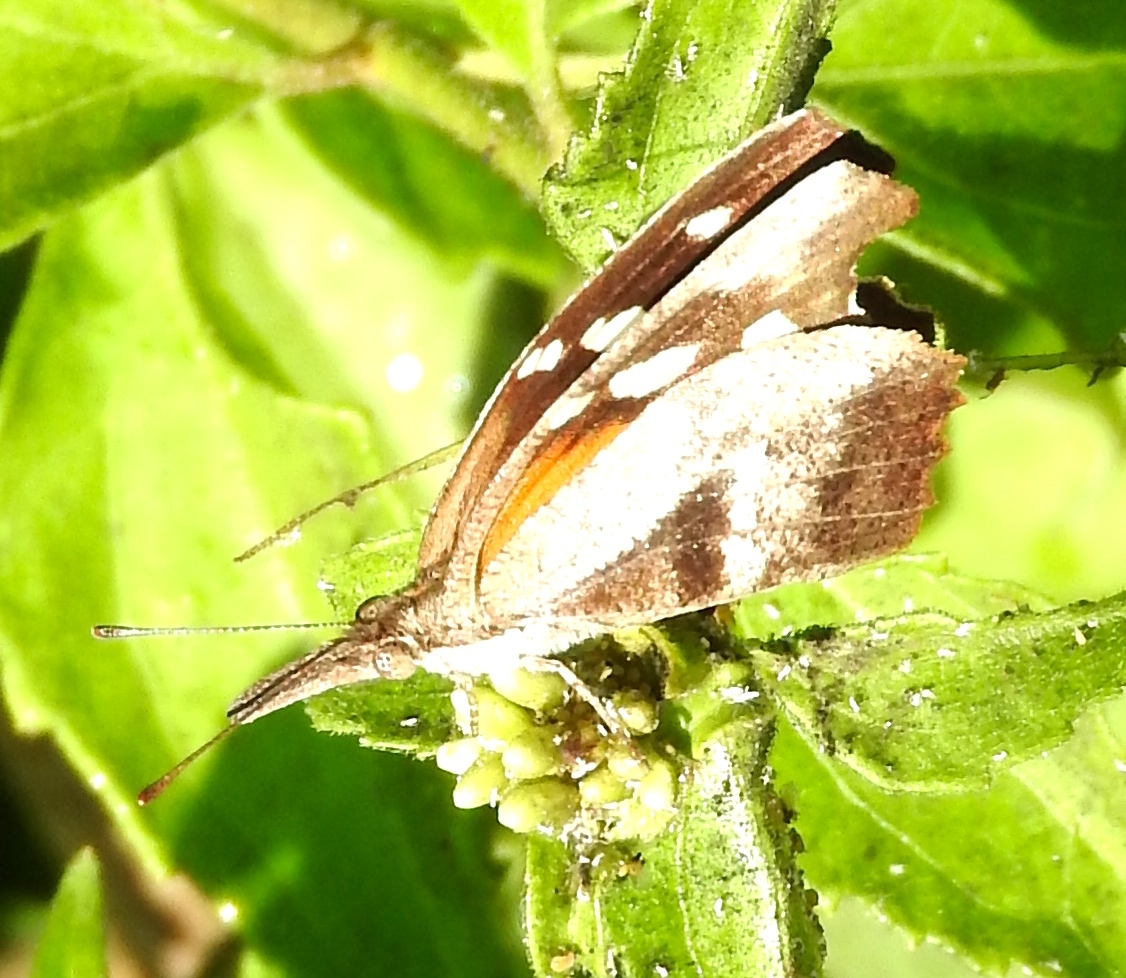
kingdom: Animalia
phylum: Arthropoda
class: Insecta
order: Lepidoptera
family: Nymphalidae
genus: Libytheana
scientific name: Libytheana carinenta
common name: American snout
